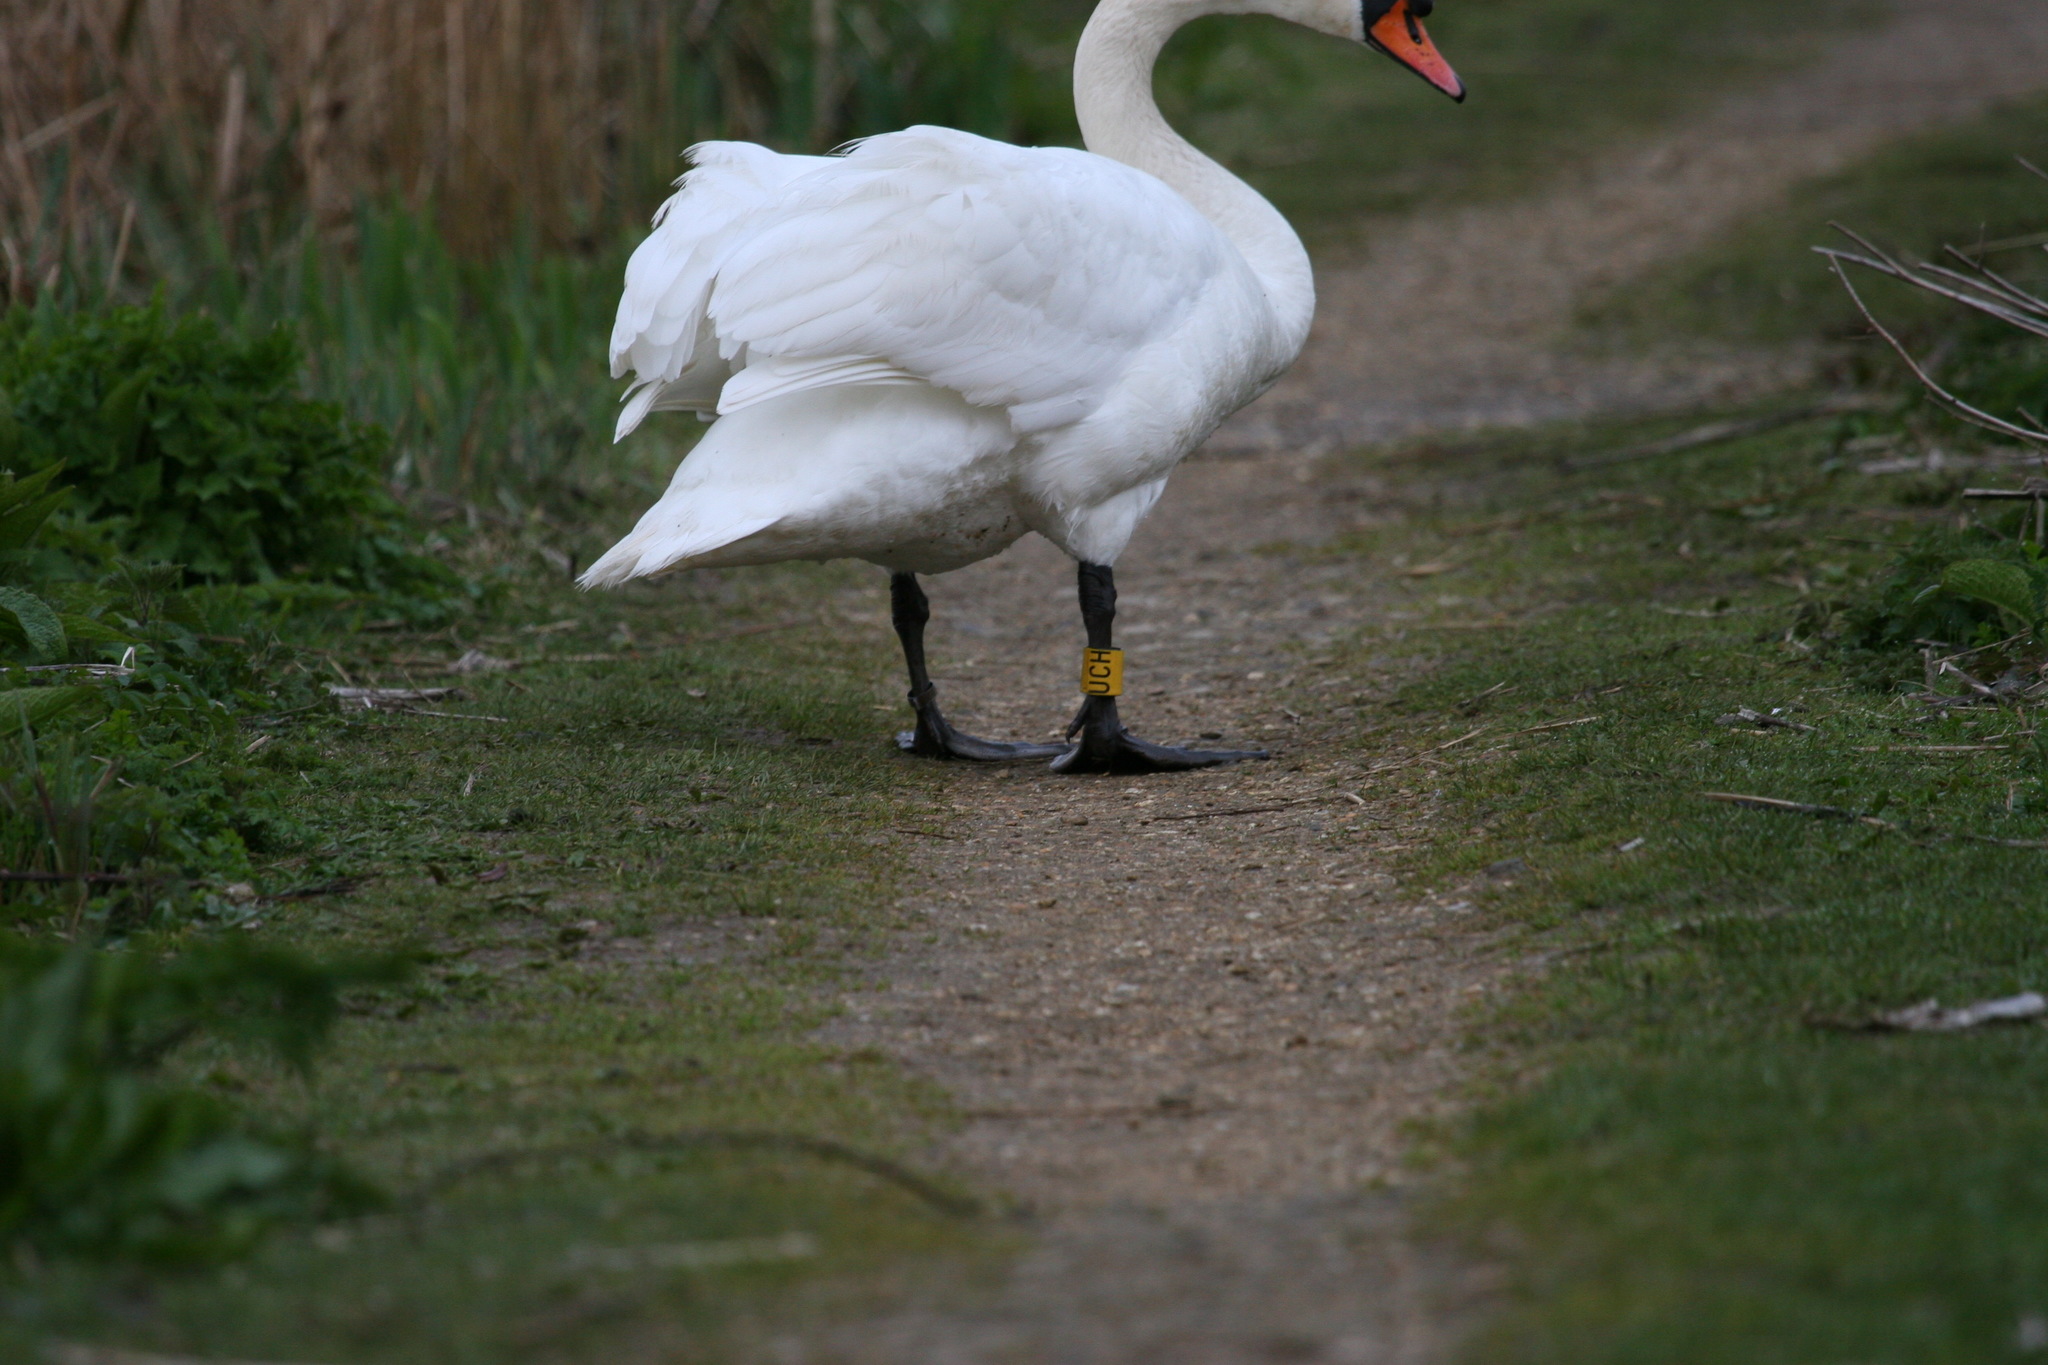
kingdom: Animalia
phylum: Chordata
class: Aves
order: Anseriformes
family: Anatidae
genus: Cygnus
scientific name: Cygnus olor
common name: Mute swan
